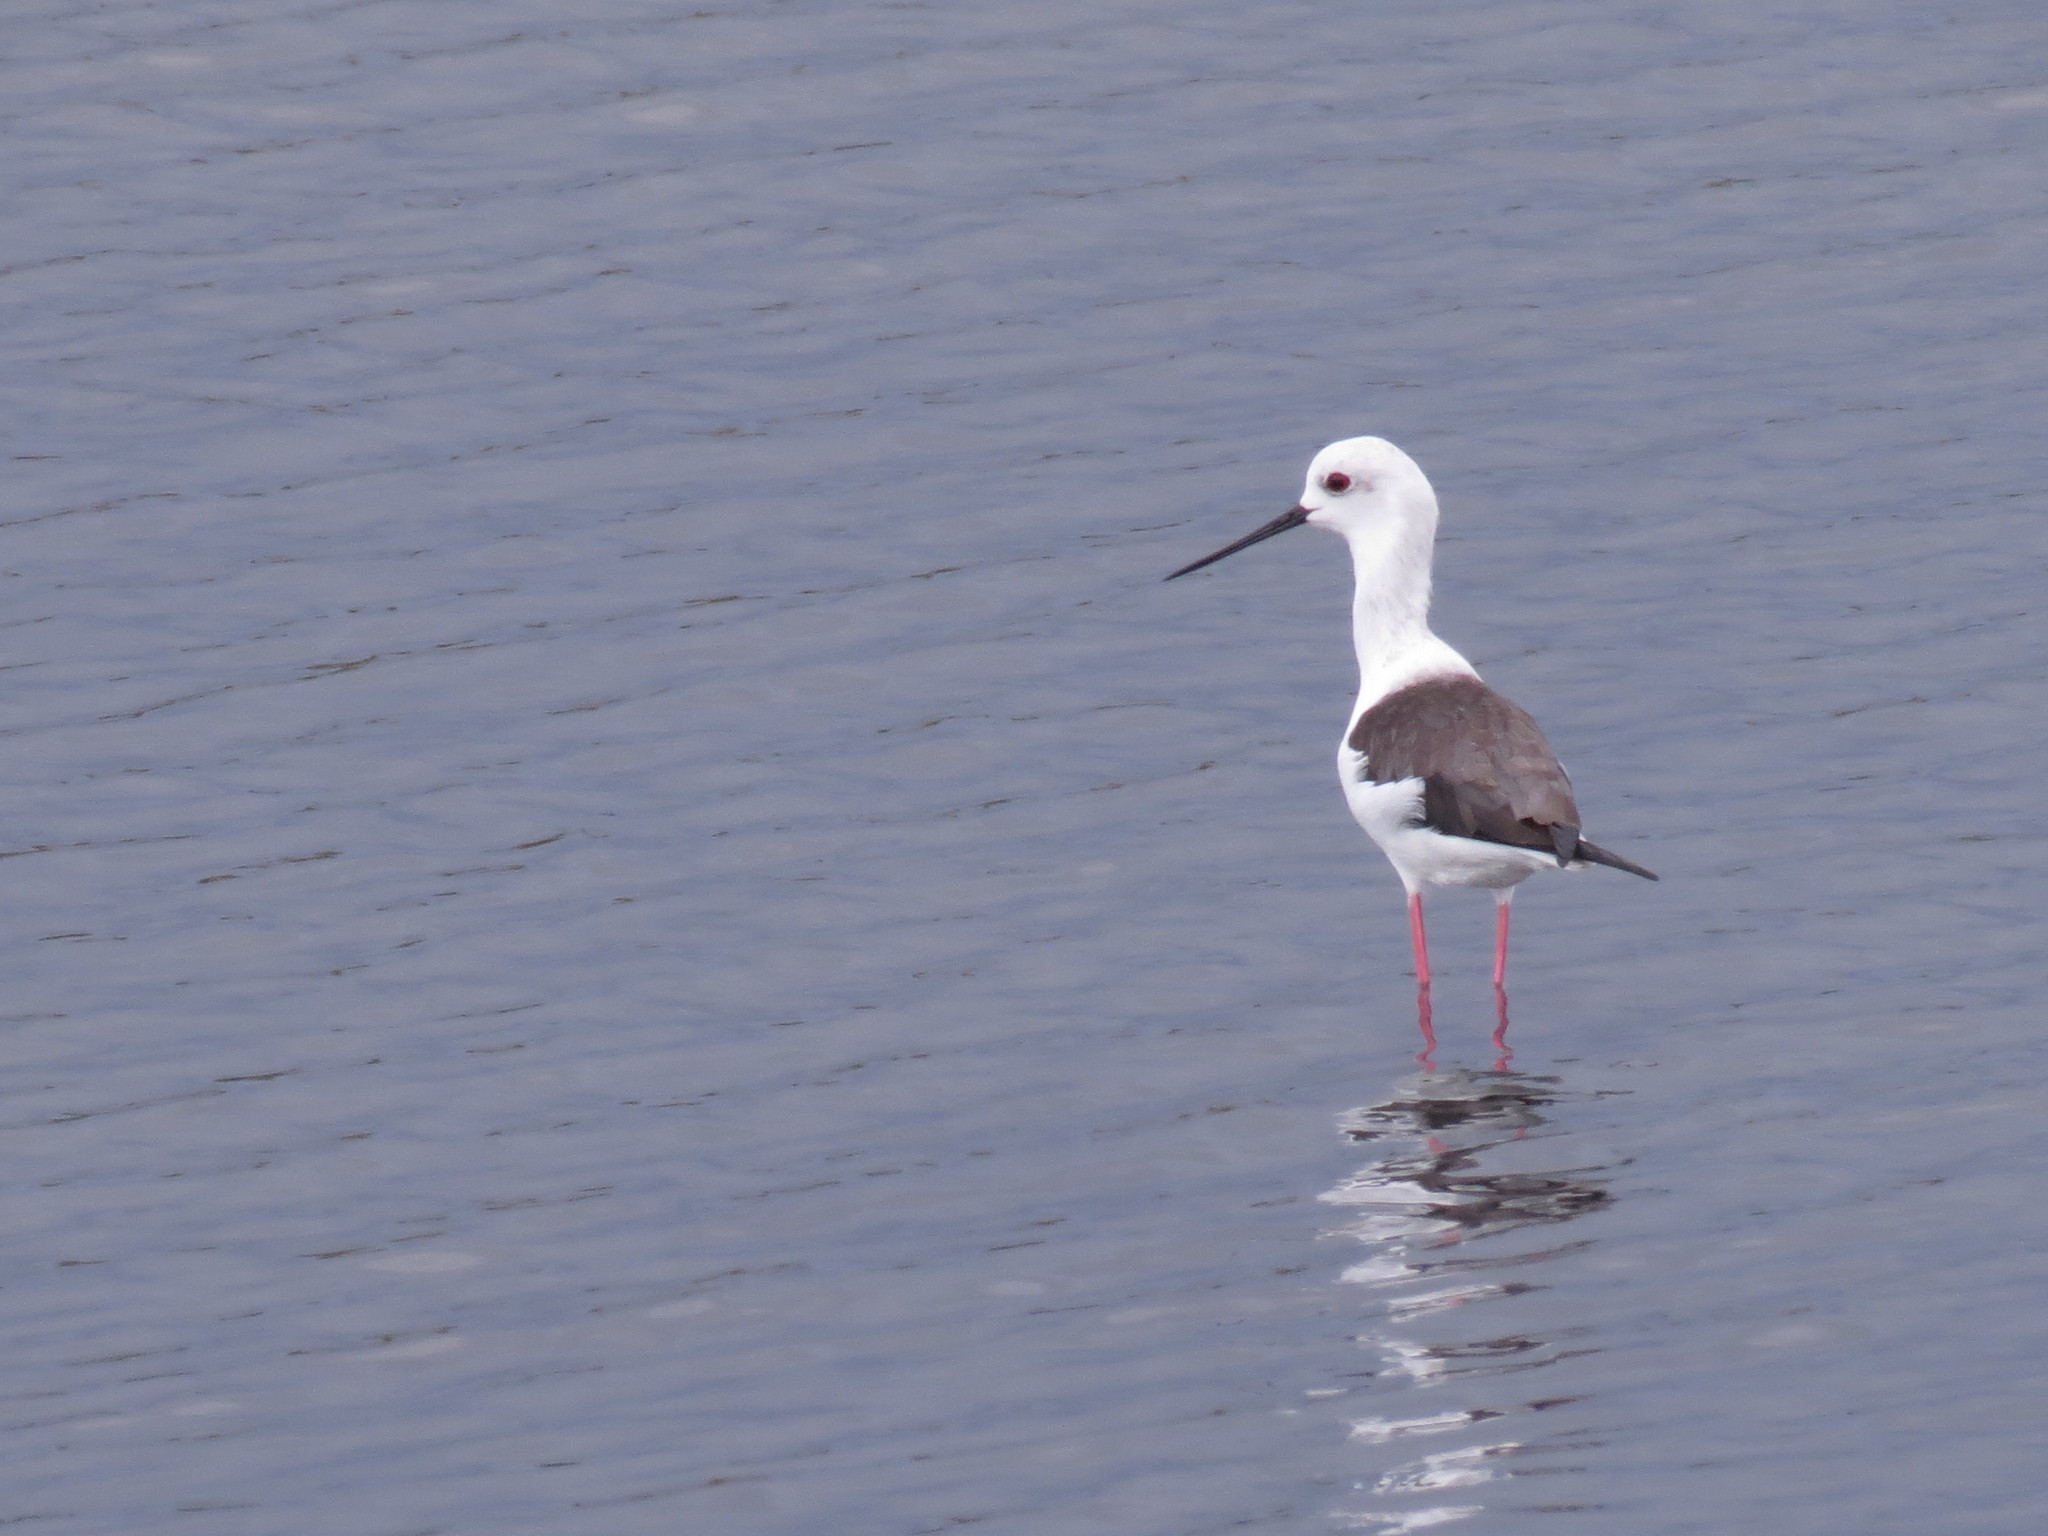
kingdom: Animalia
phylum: Chordata
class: Aves
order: Charadriiformes
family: Recurvirostridae
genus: Himantopus
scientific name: Himantopus himantopus
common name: Black-winged stilt
